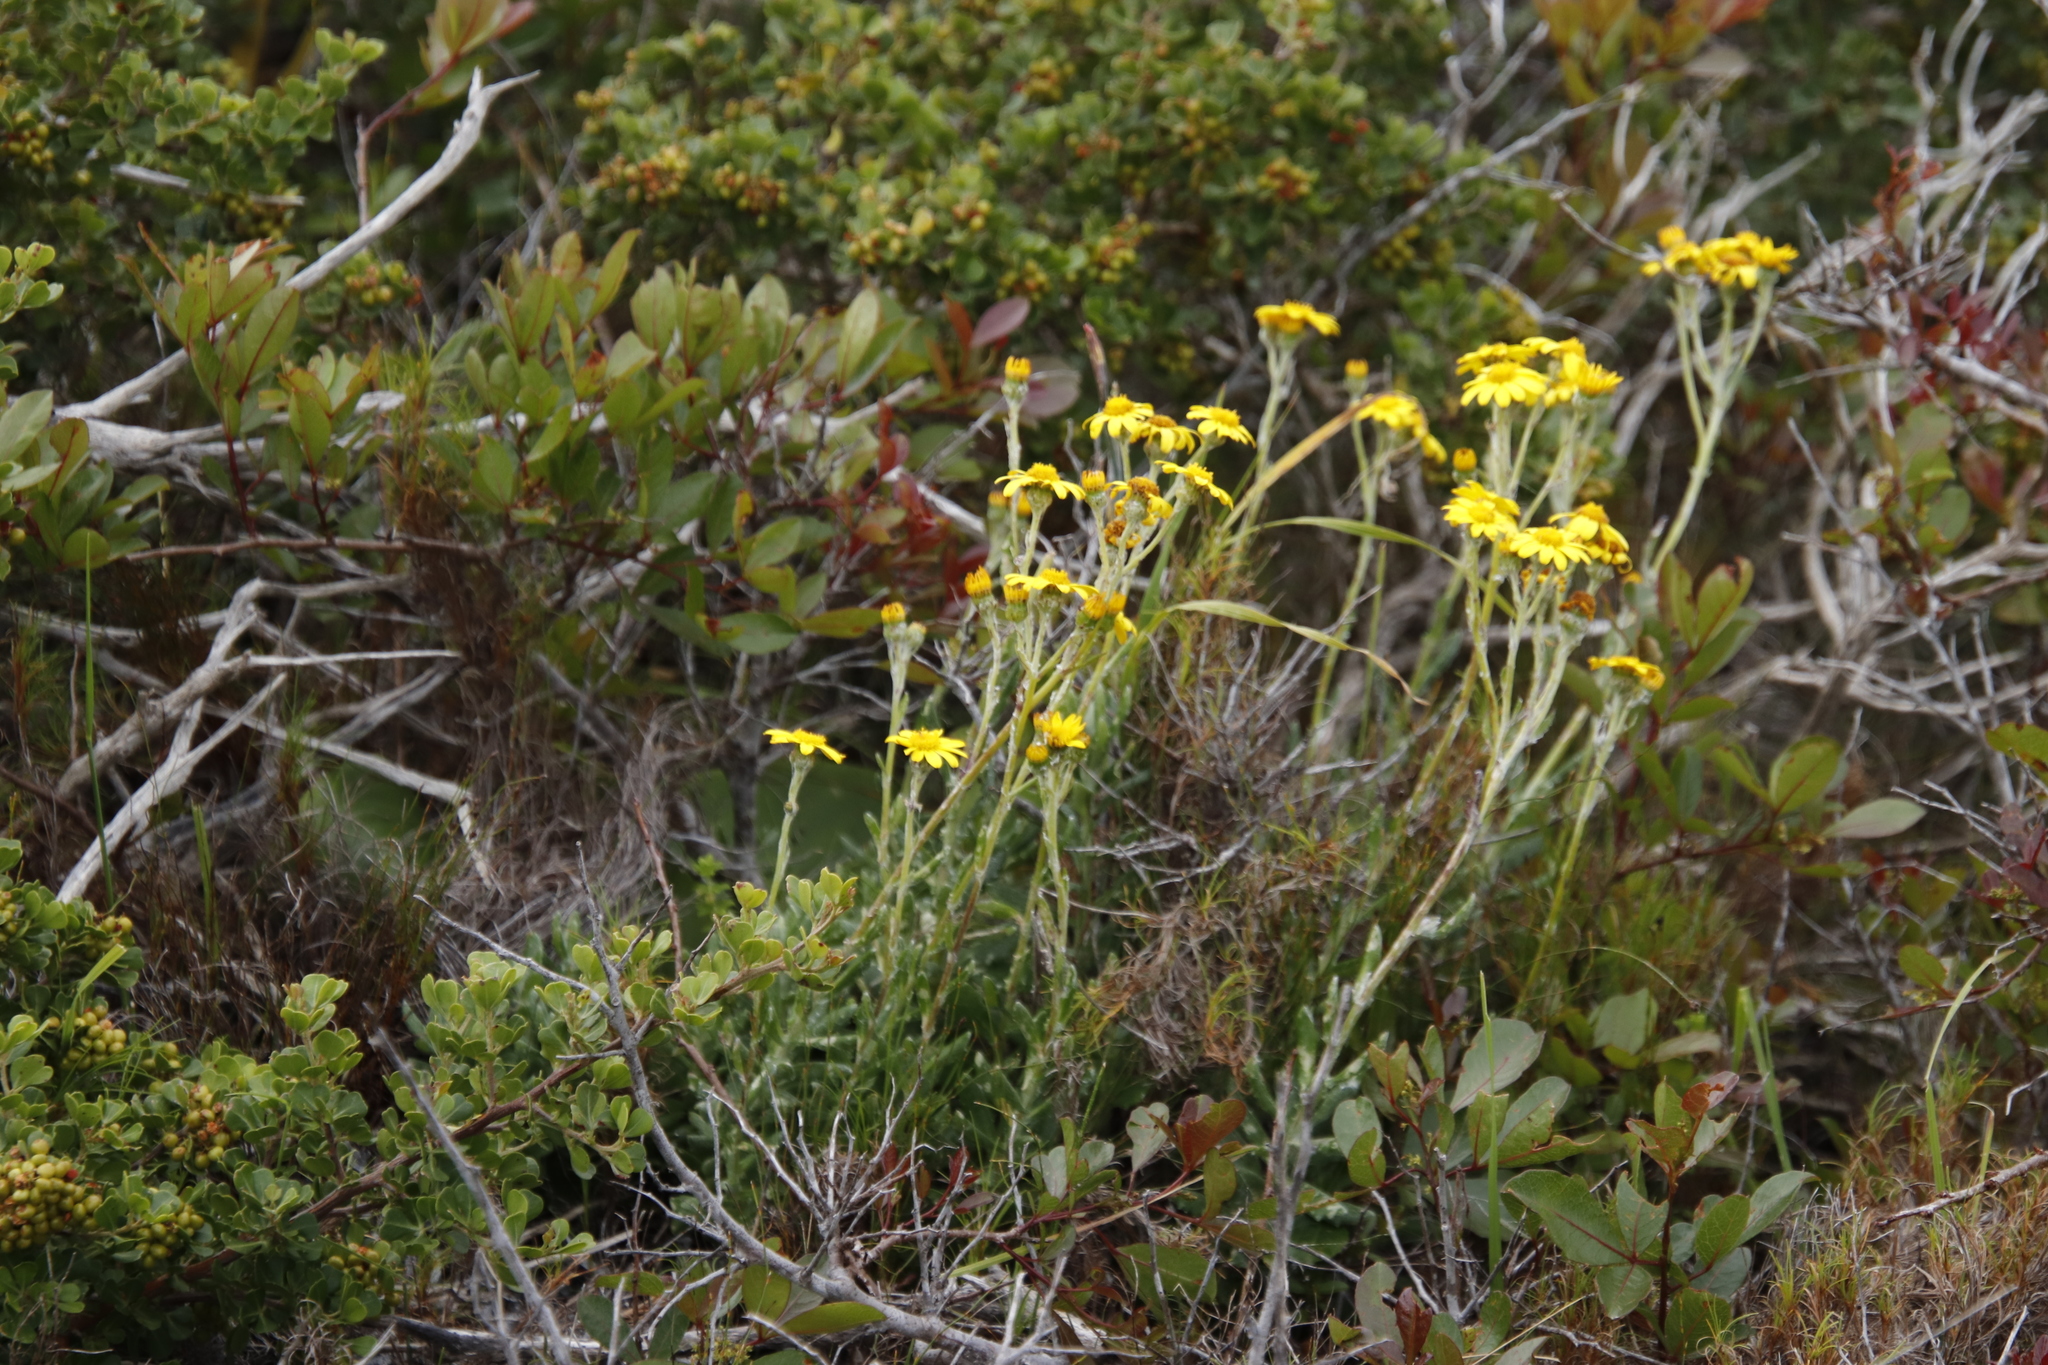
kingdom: Plantae
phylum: Tracheophyta
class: Magnoliopsida
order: Asterales
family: Asteraceae
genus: Senecio
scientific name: Senecio arniciflorus
